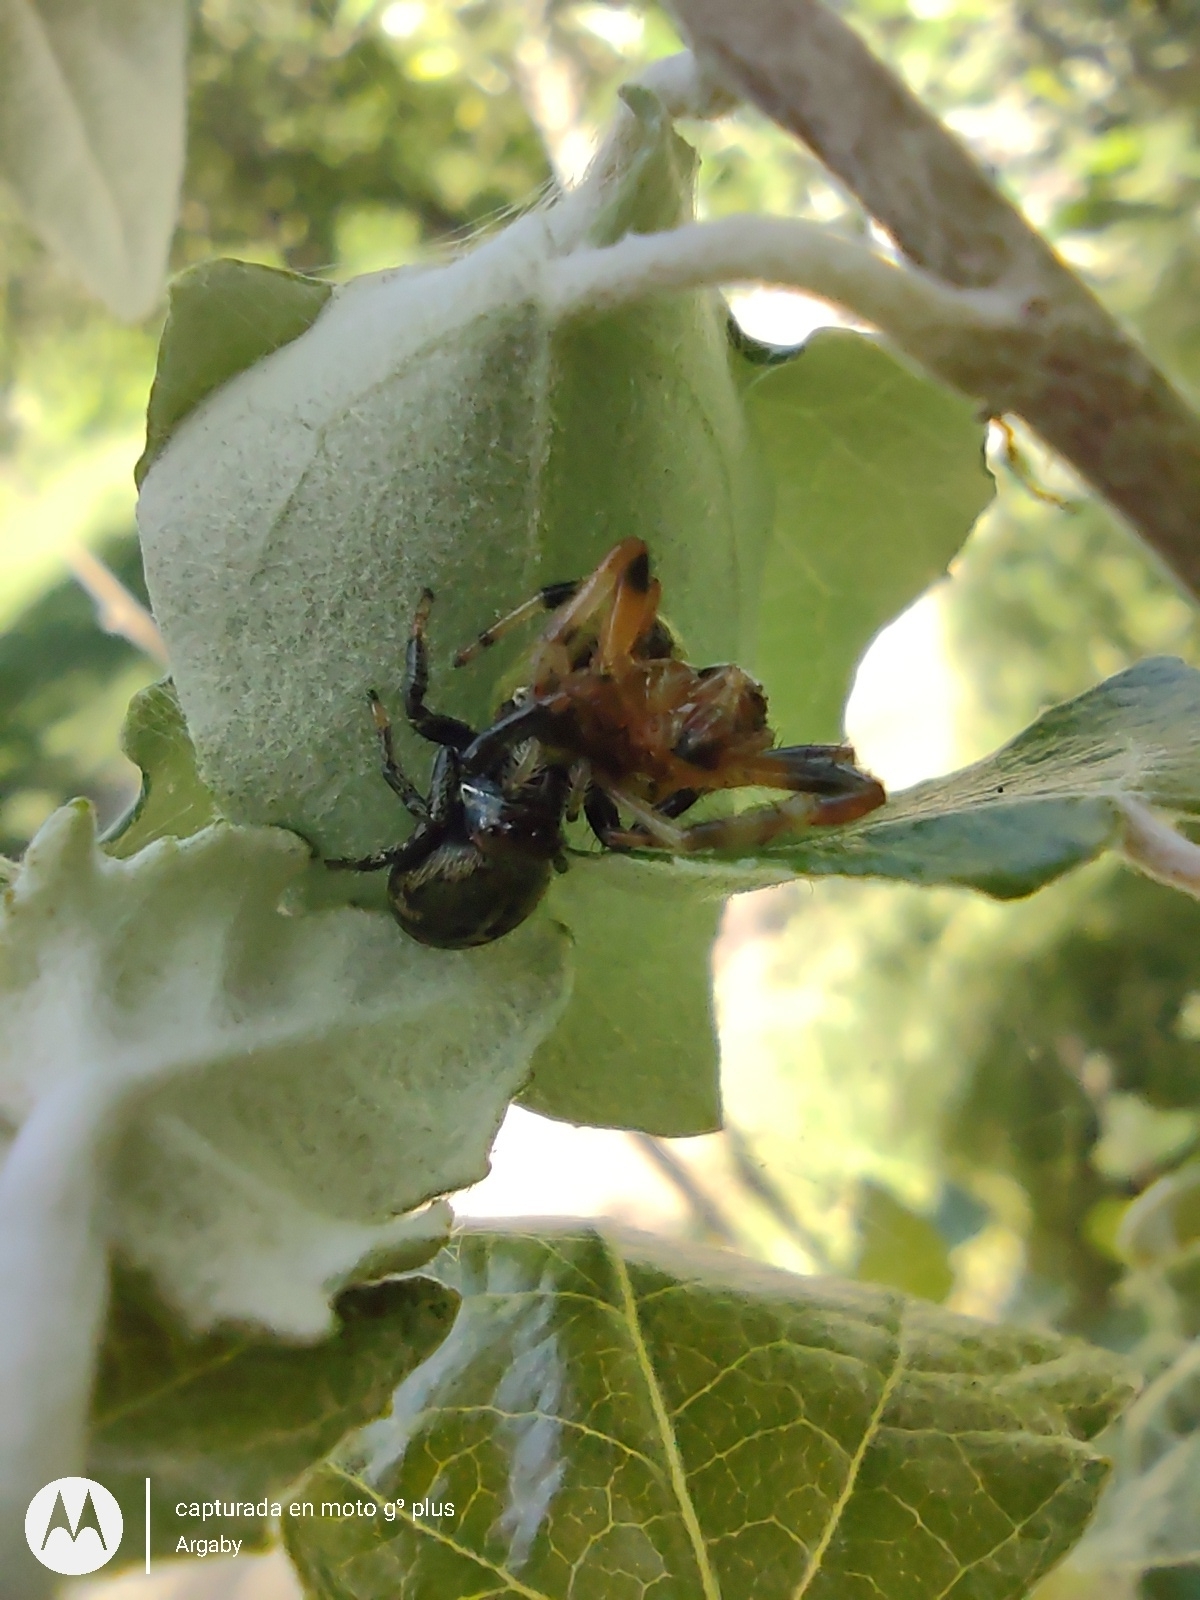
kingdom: Animalia
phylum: Arthropoda
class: Arachnida
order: Araneae
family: Salticidae
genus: Phiale
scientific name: Phiale roburifoliata
